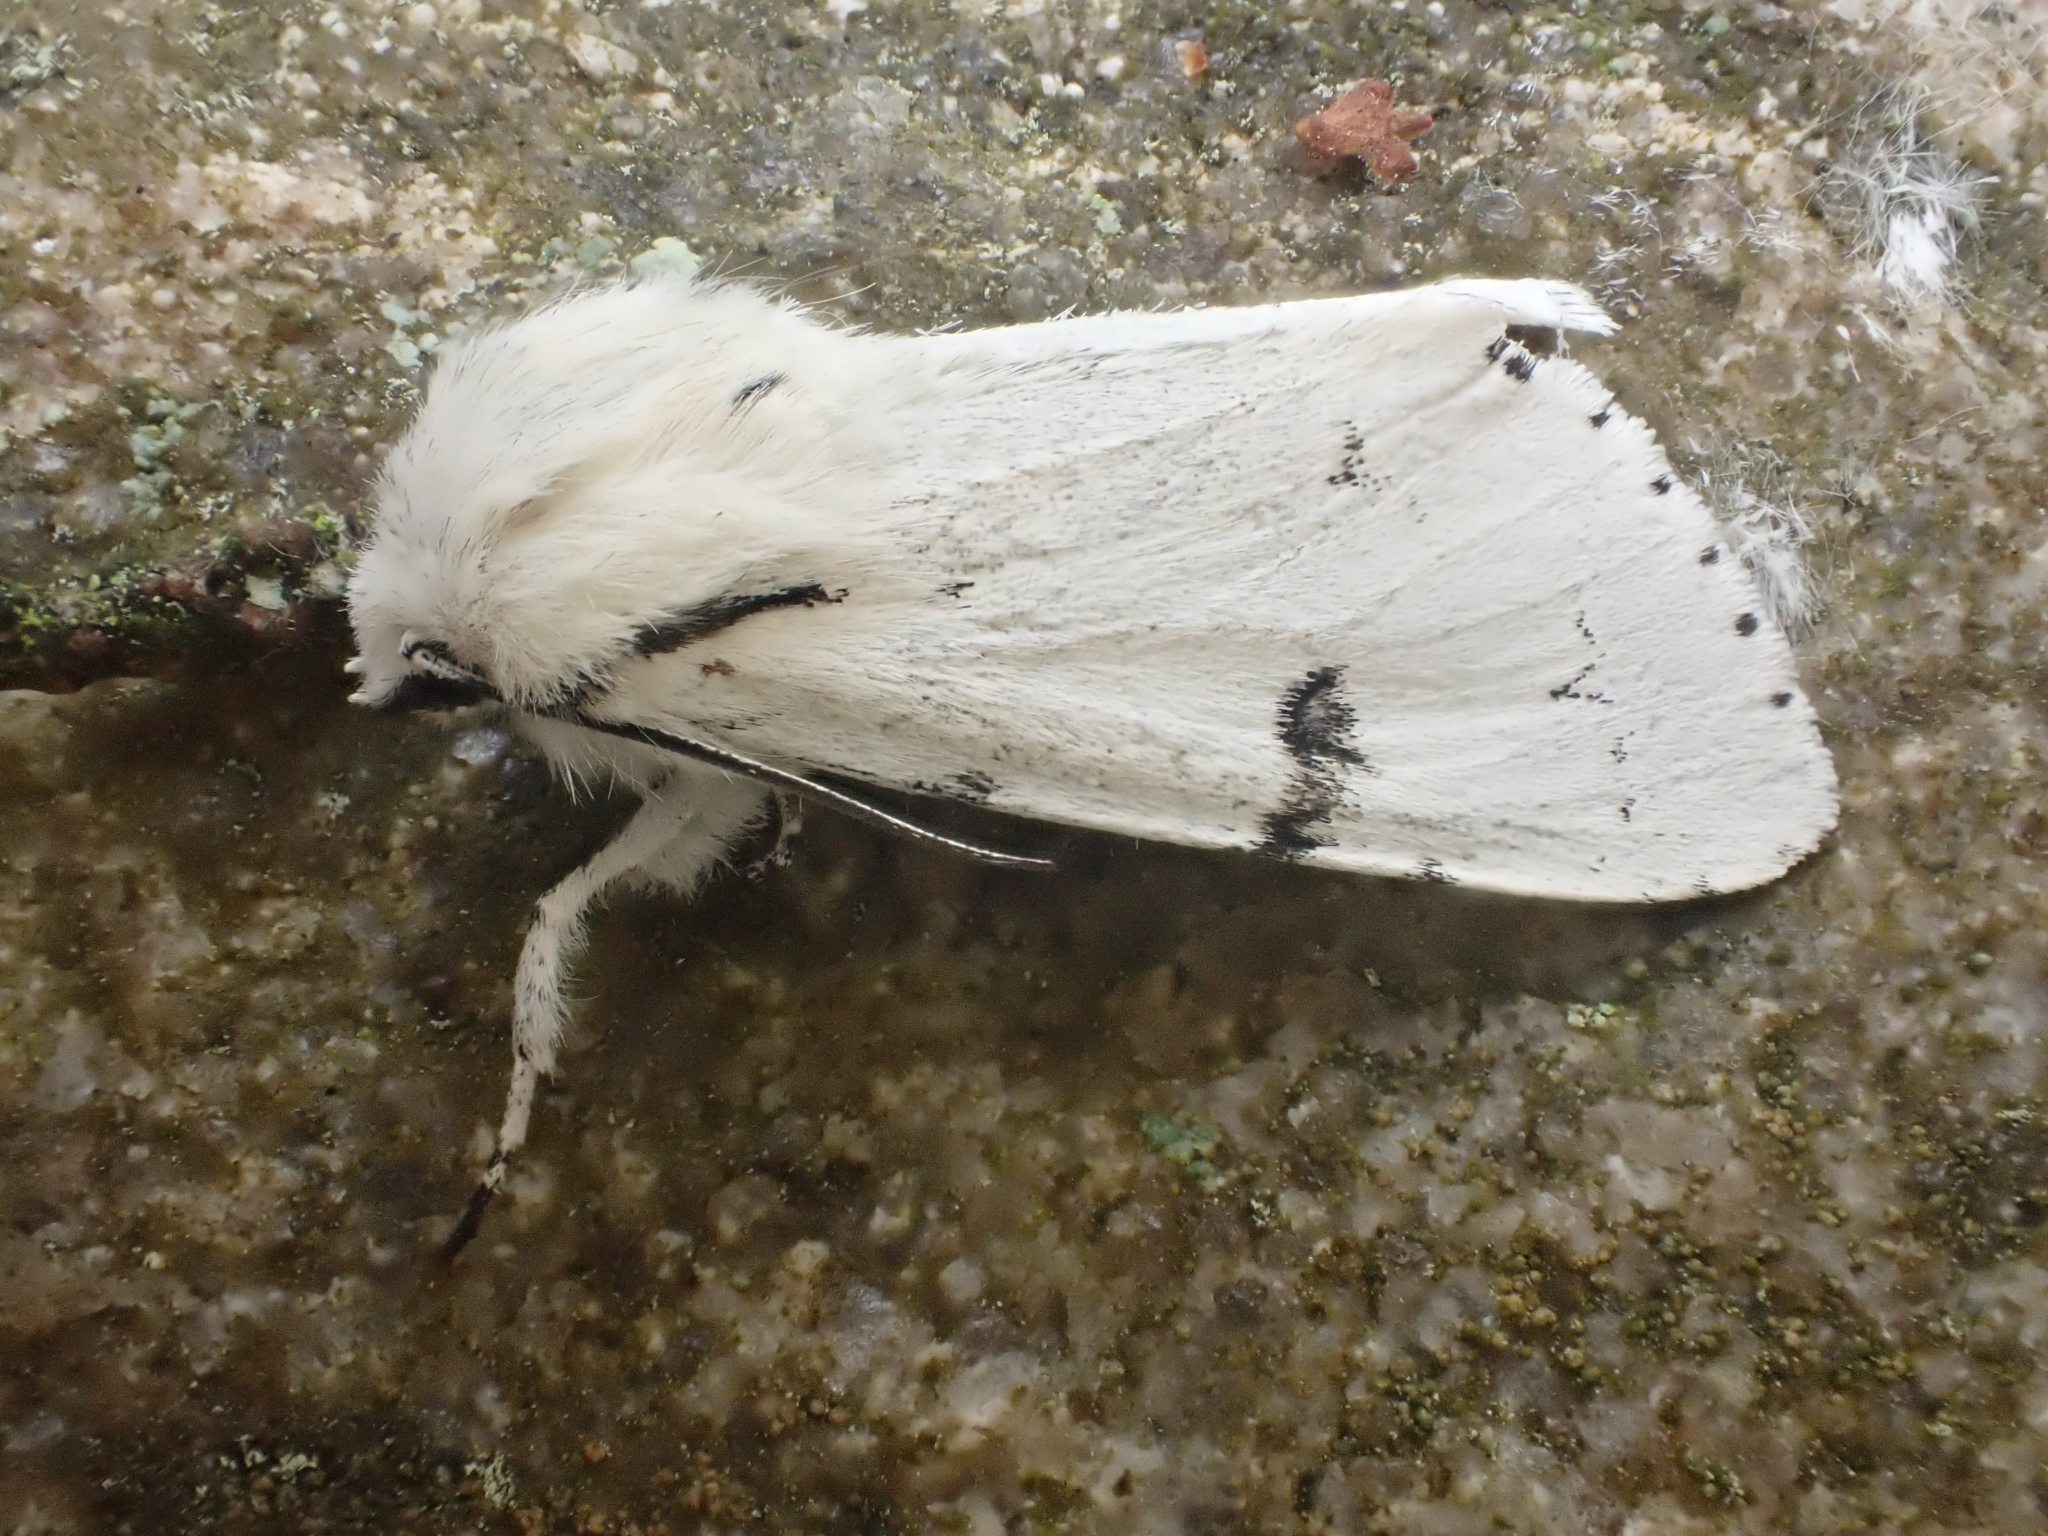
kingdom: Animalia
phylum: Arthropoda
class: Insecta
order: Lepidoptera
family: Noctuidae
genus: Acronicta
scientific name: Acronicta leporina
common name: Miller
